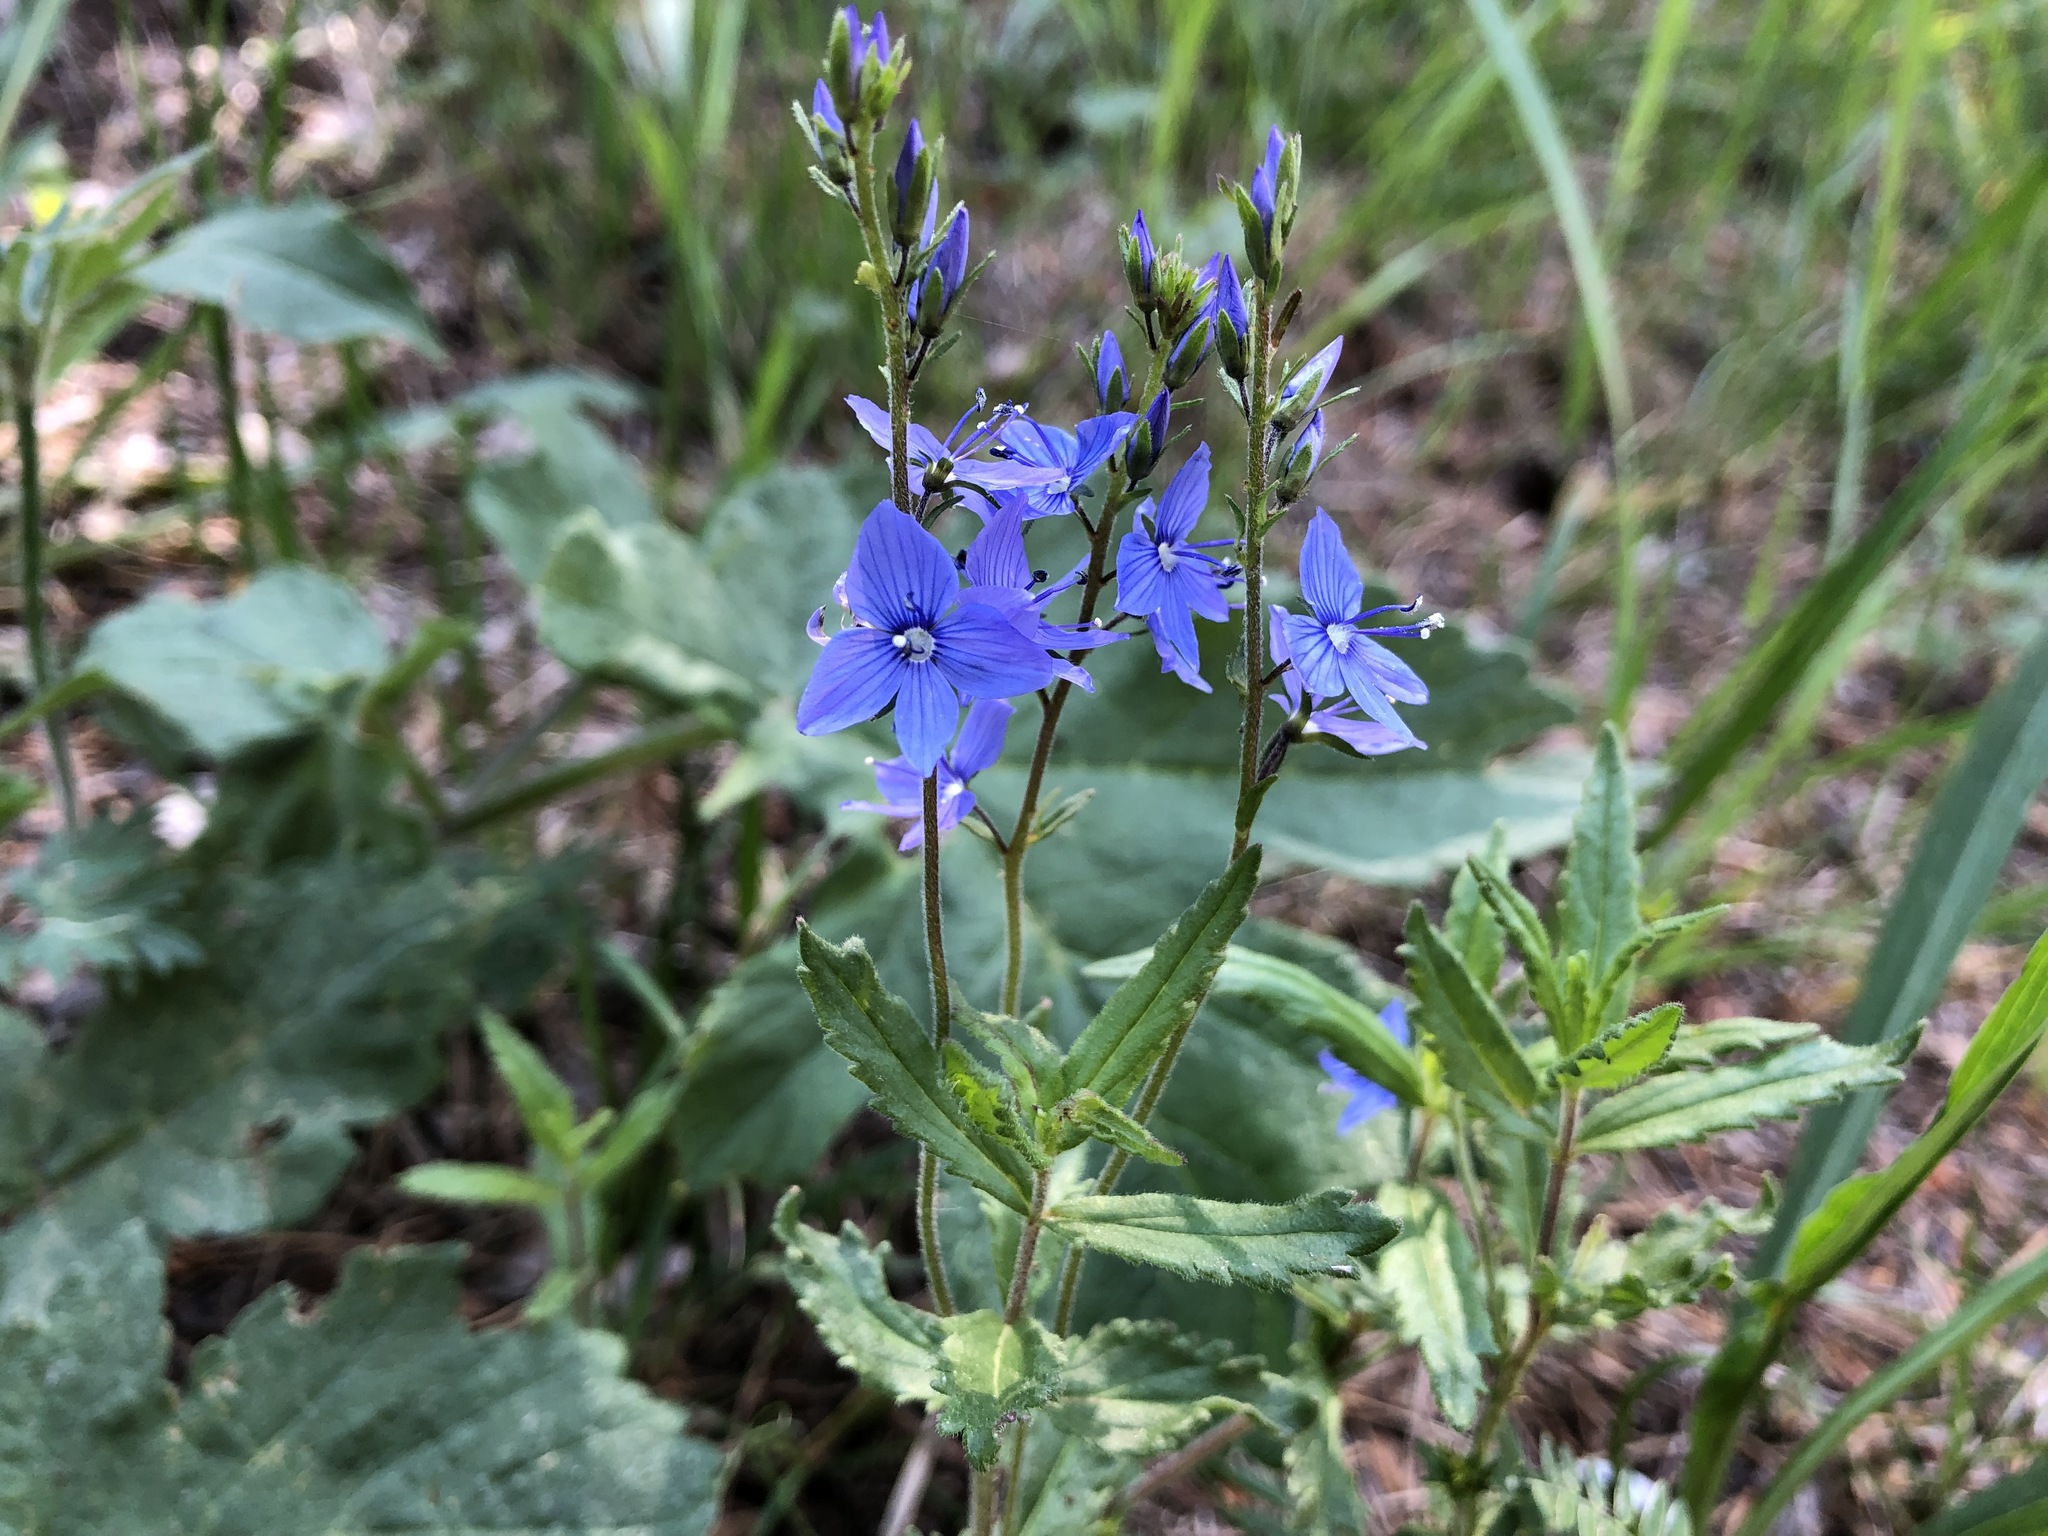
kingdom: Plantae
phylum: Tracheophyta
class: Magnoliopsida
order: Lamiales
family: Plantaginaceae
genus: Veronica
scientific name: Veronica teucrium
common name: Large speedwell
